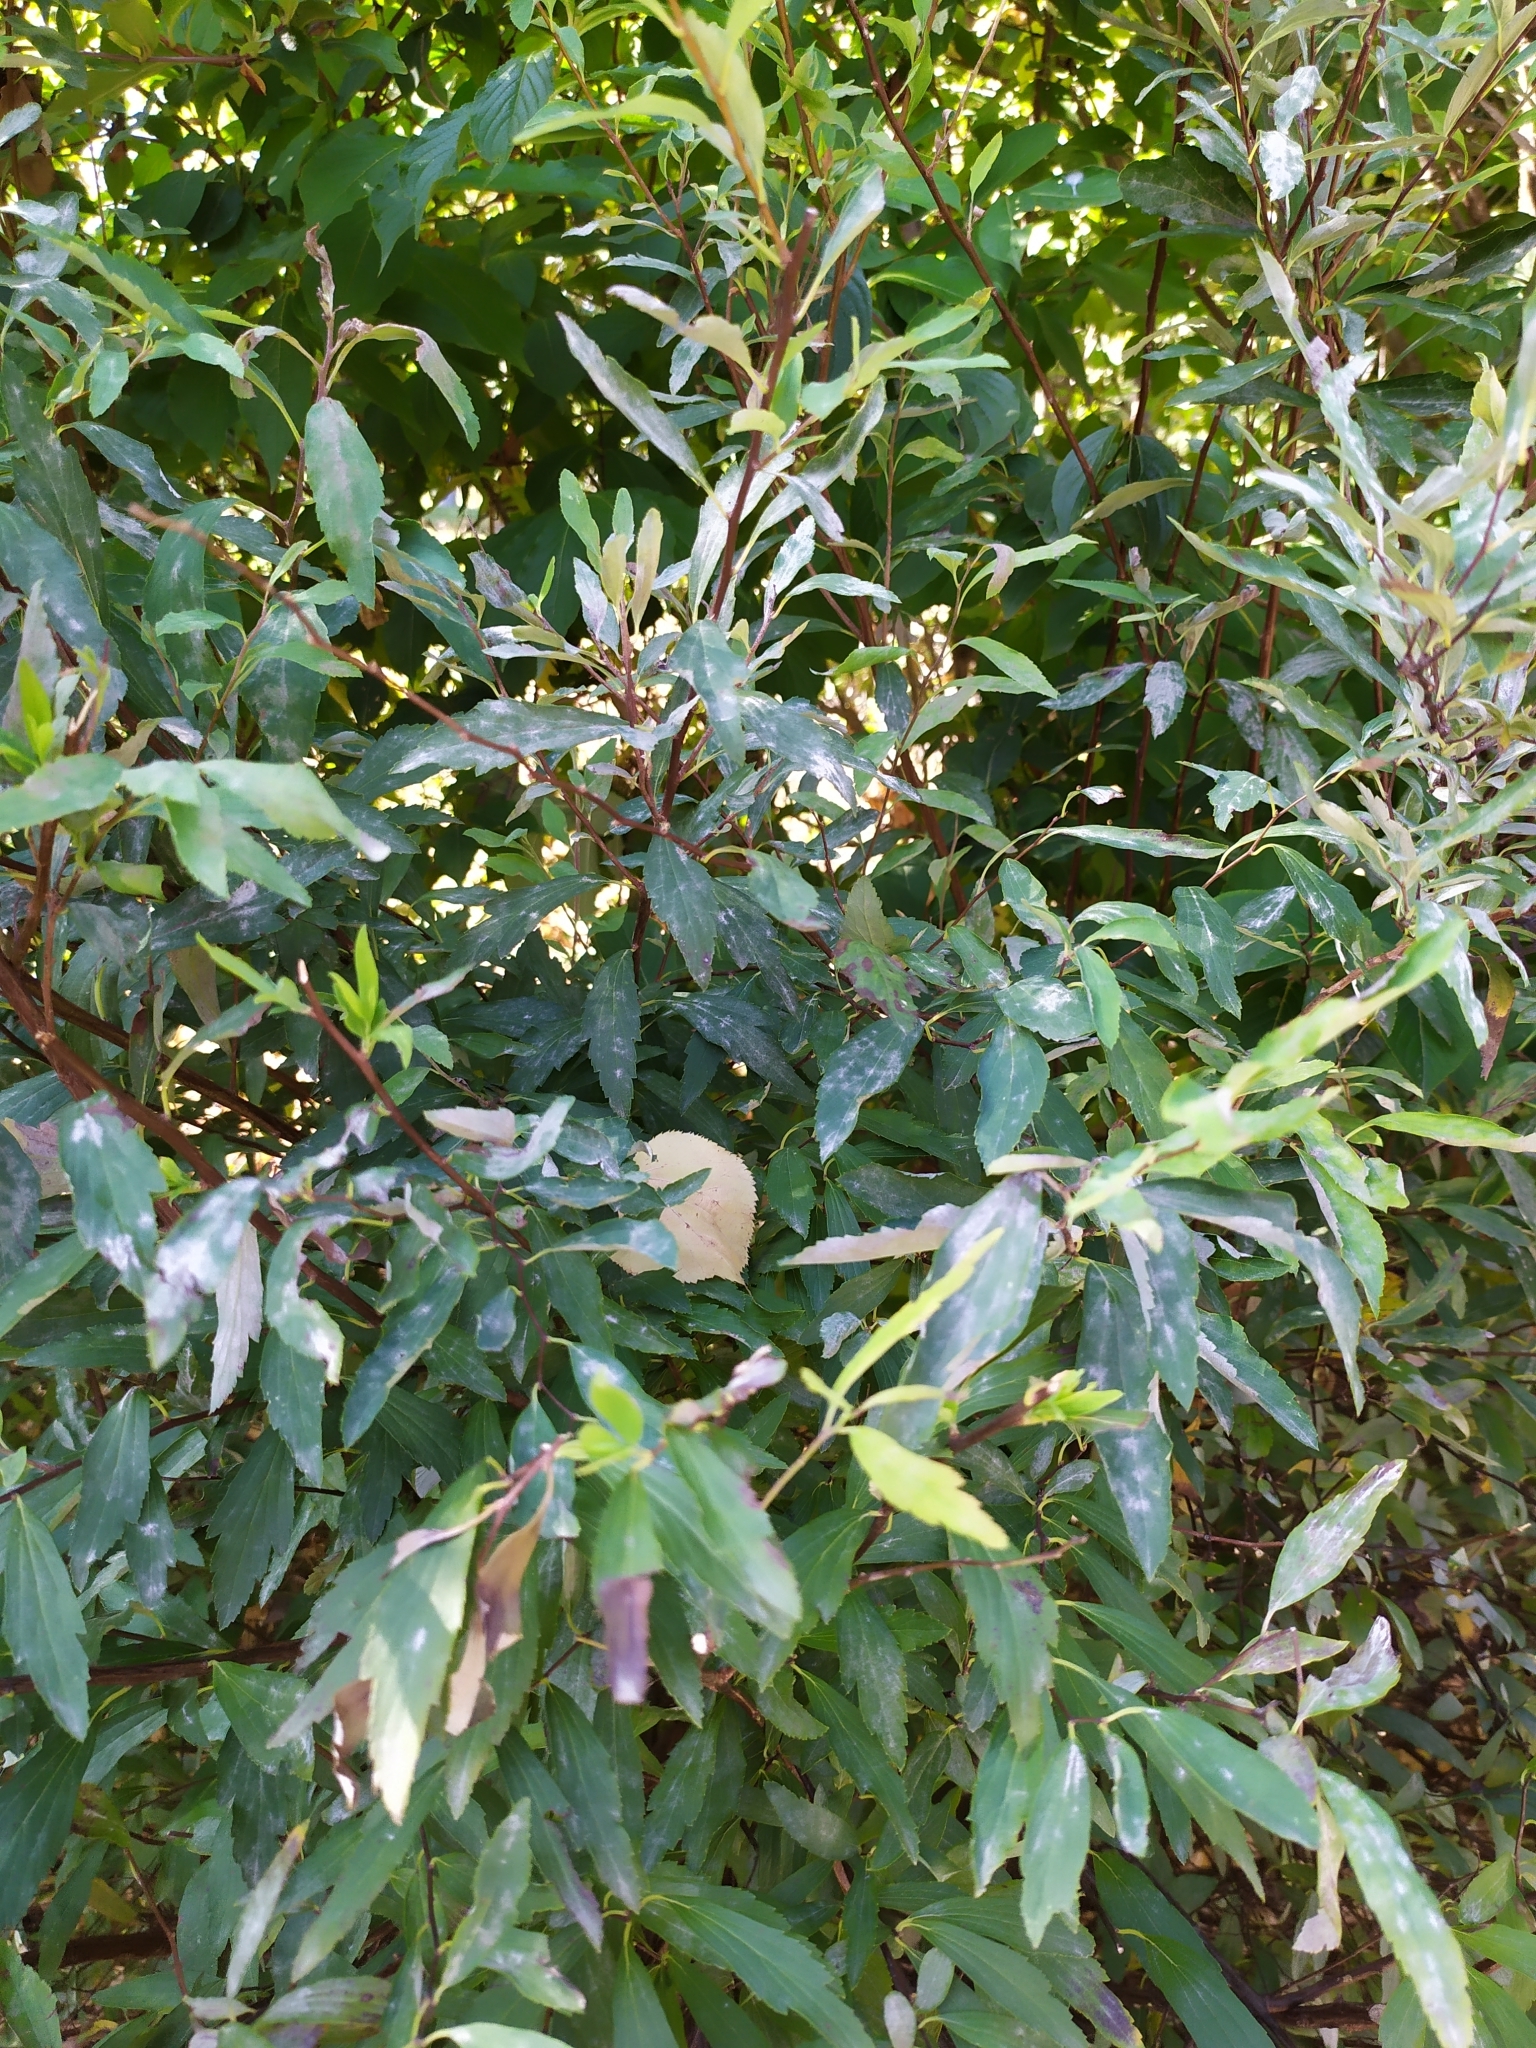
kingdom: Fungi
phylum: Ascomycota
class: Leotiomycetes
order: Helotiales
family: Erysiphaceae
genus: Podosphaera
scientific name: Podosphaera clandestina
